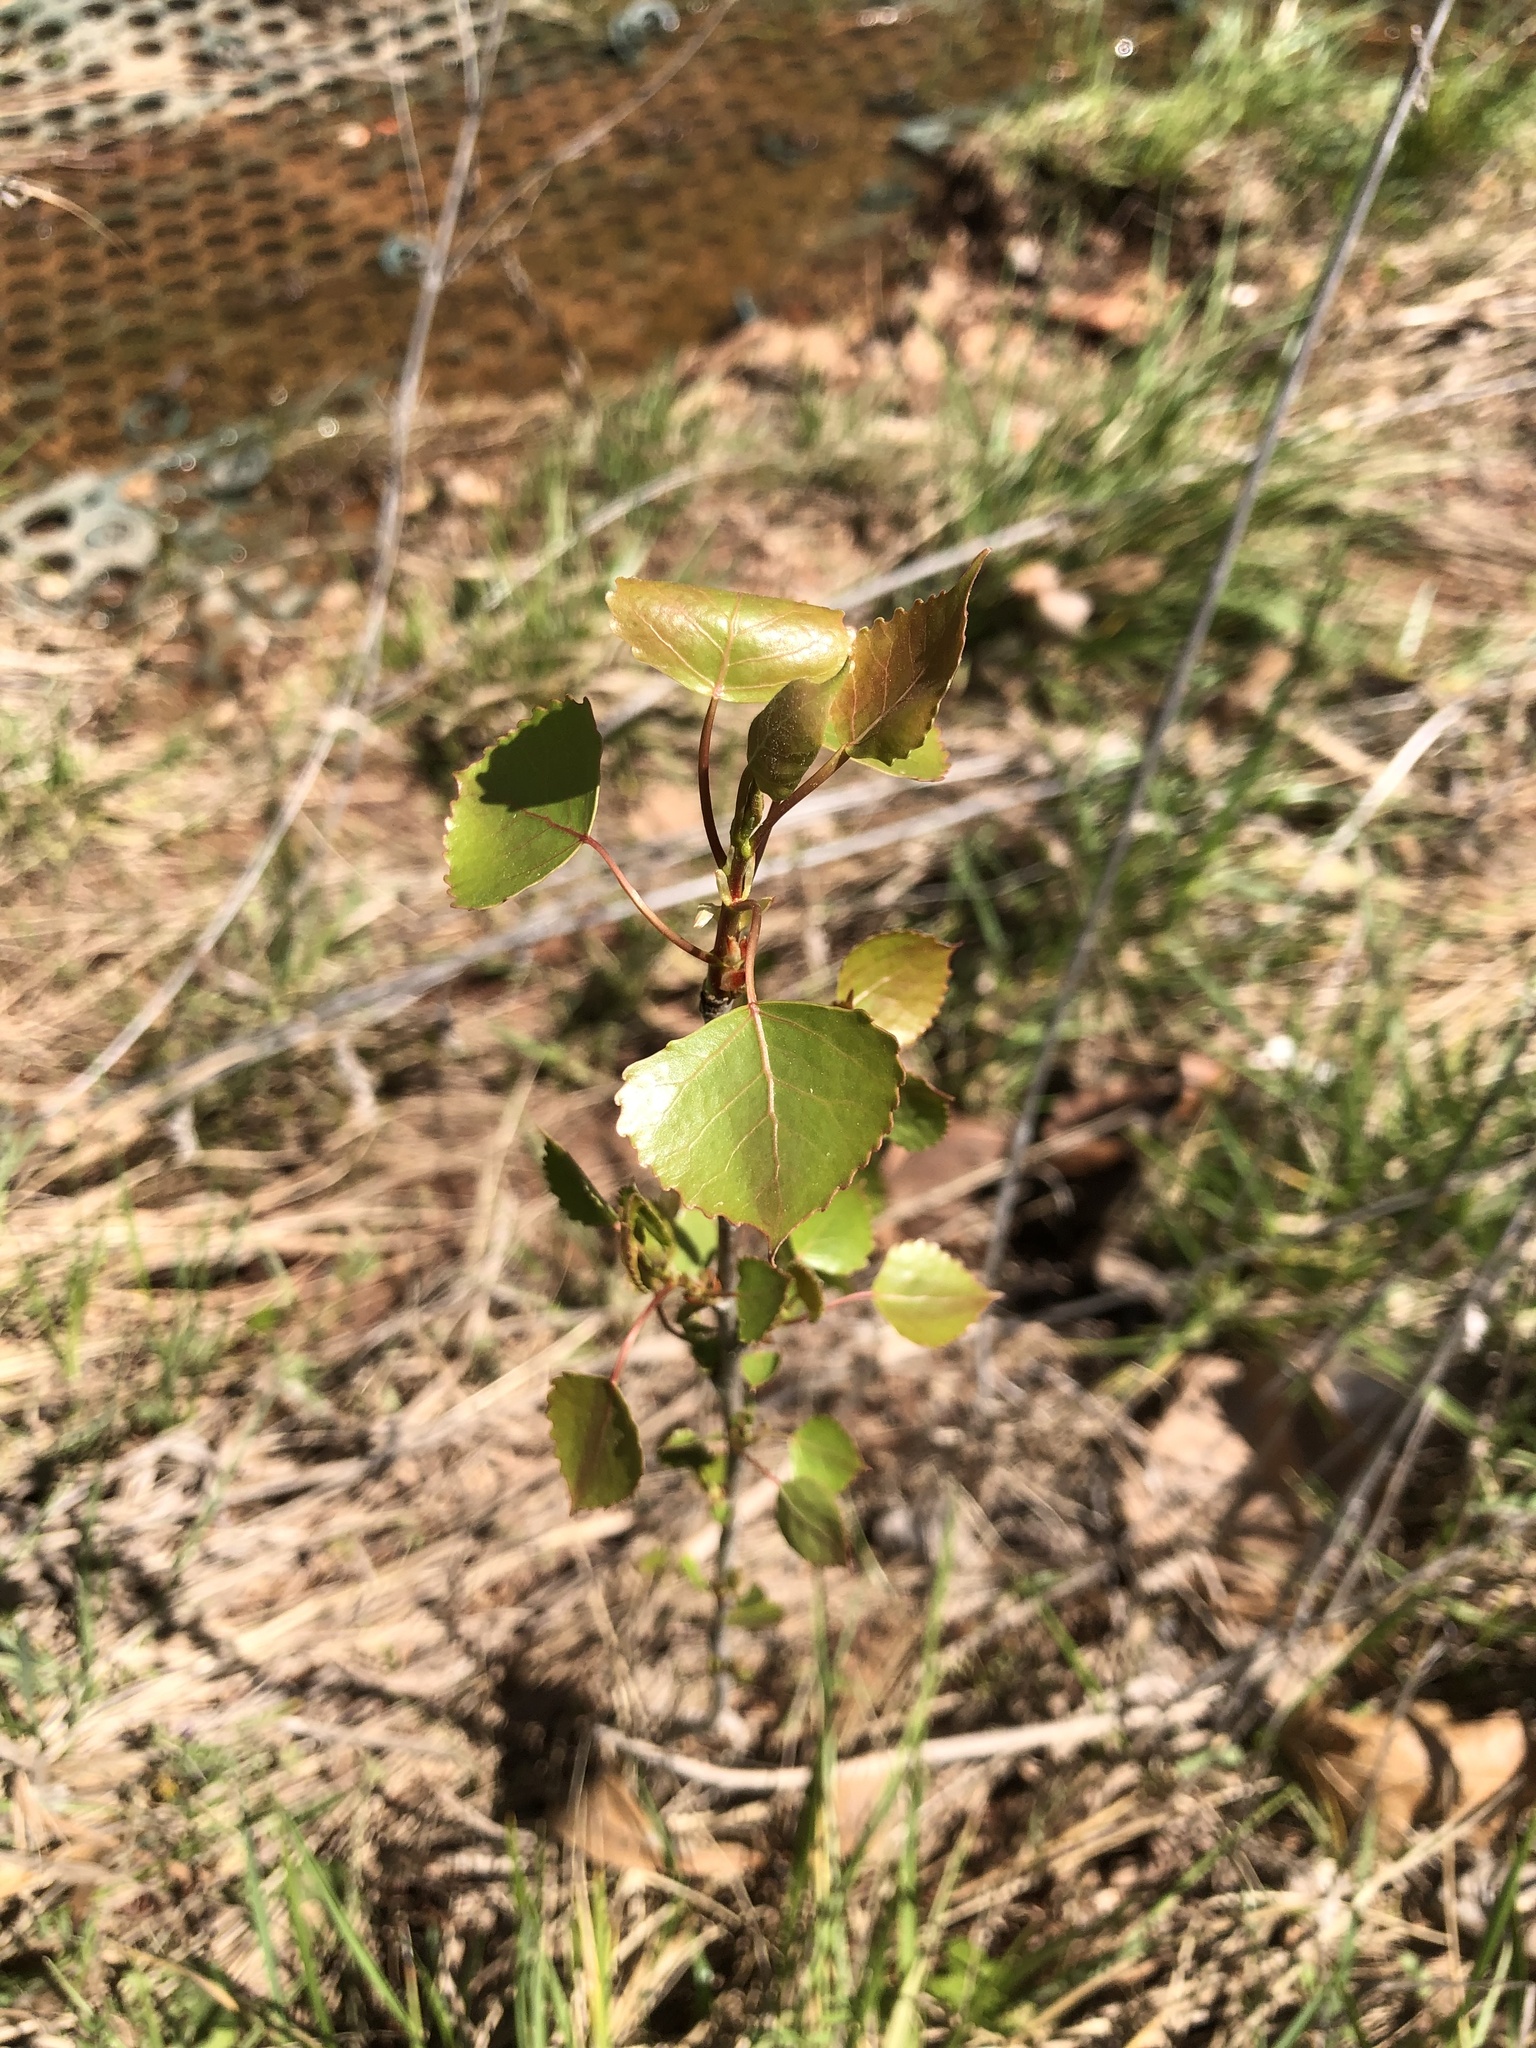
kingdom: Plantae
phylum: Tracheophyta
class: Magnoliopsida
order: Malpighiales
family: Salicaceae
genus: Populus
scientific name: Populus deltoides
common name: Eastern cottonwood
